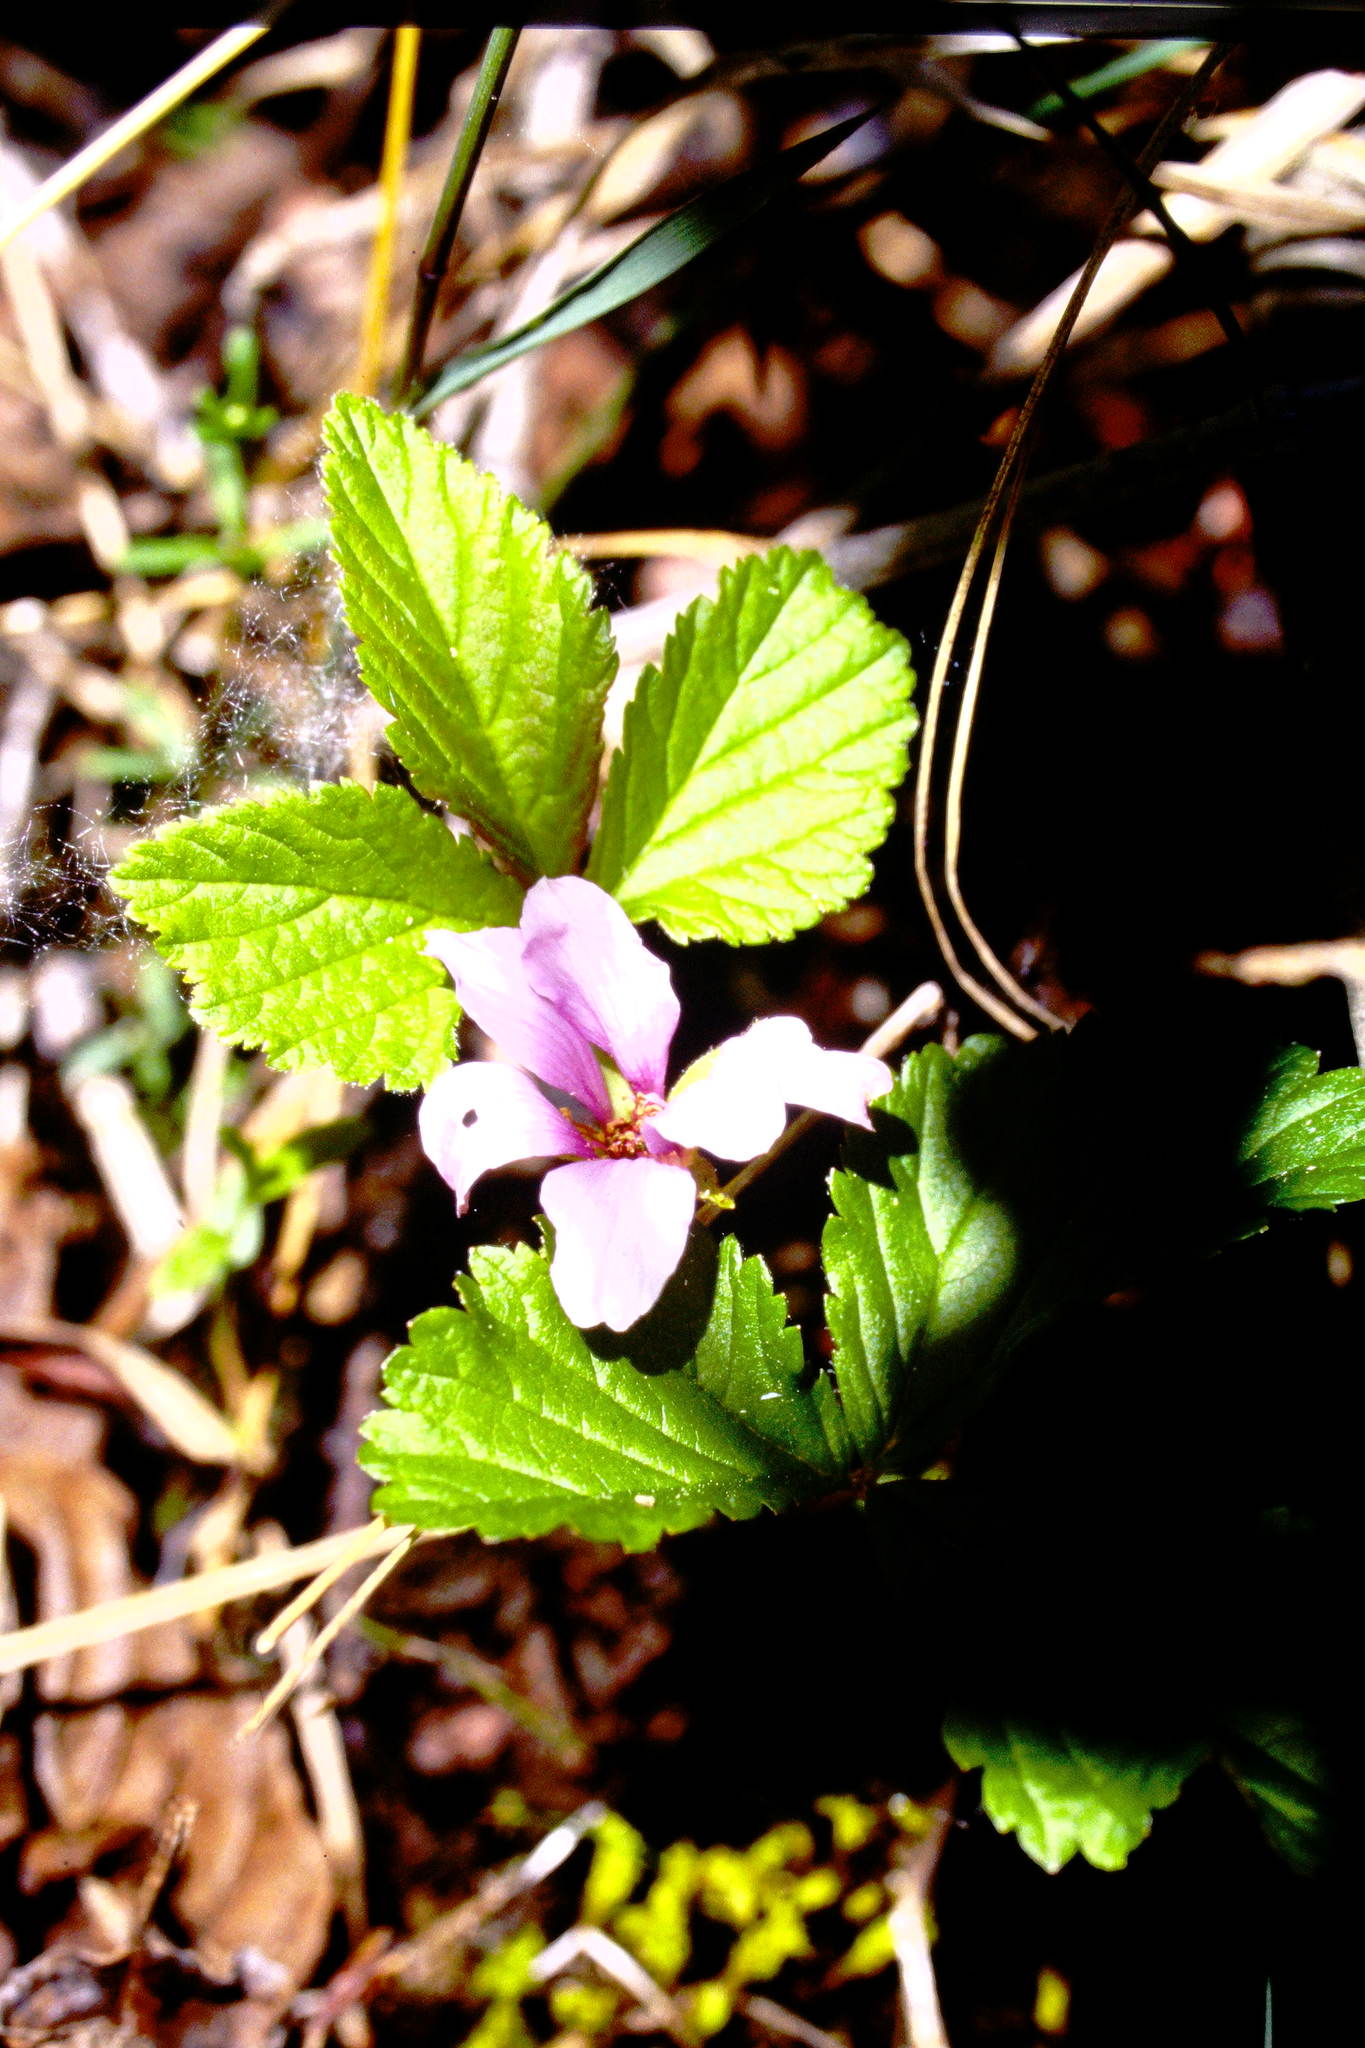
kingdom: Plantae
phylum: Tracheophyta
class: Magnoliopsida
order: Rosales
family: Rosaceae
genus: Rubus
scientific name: Rubus arcticus
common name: Arctic bramble
